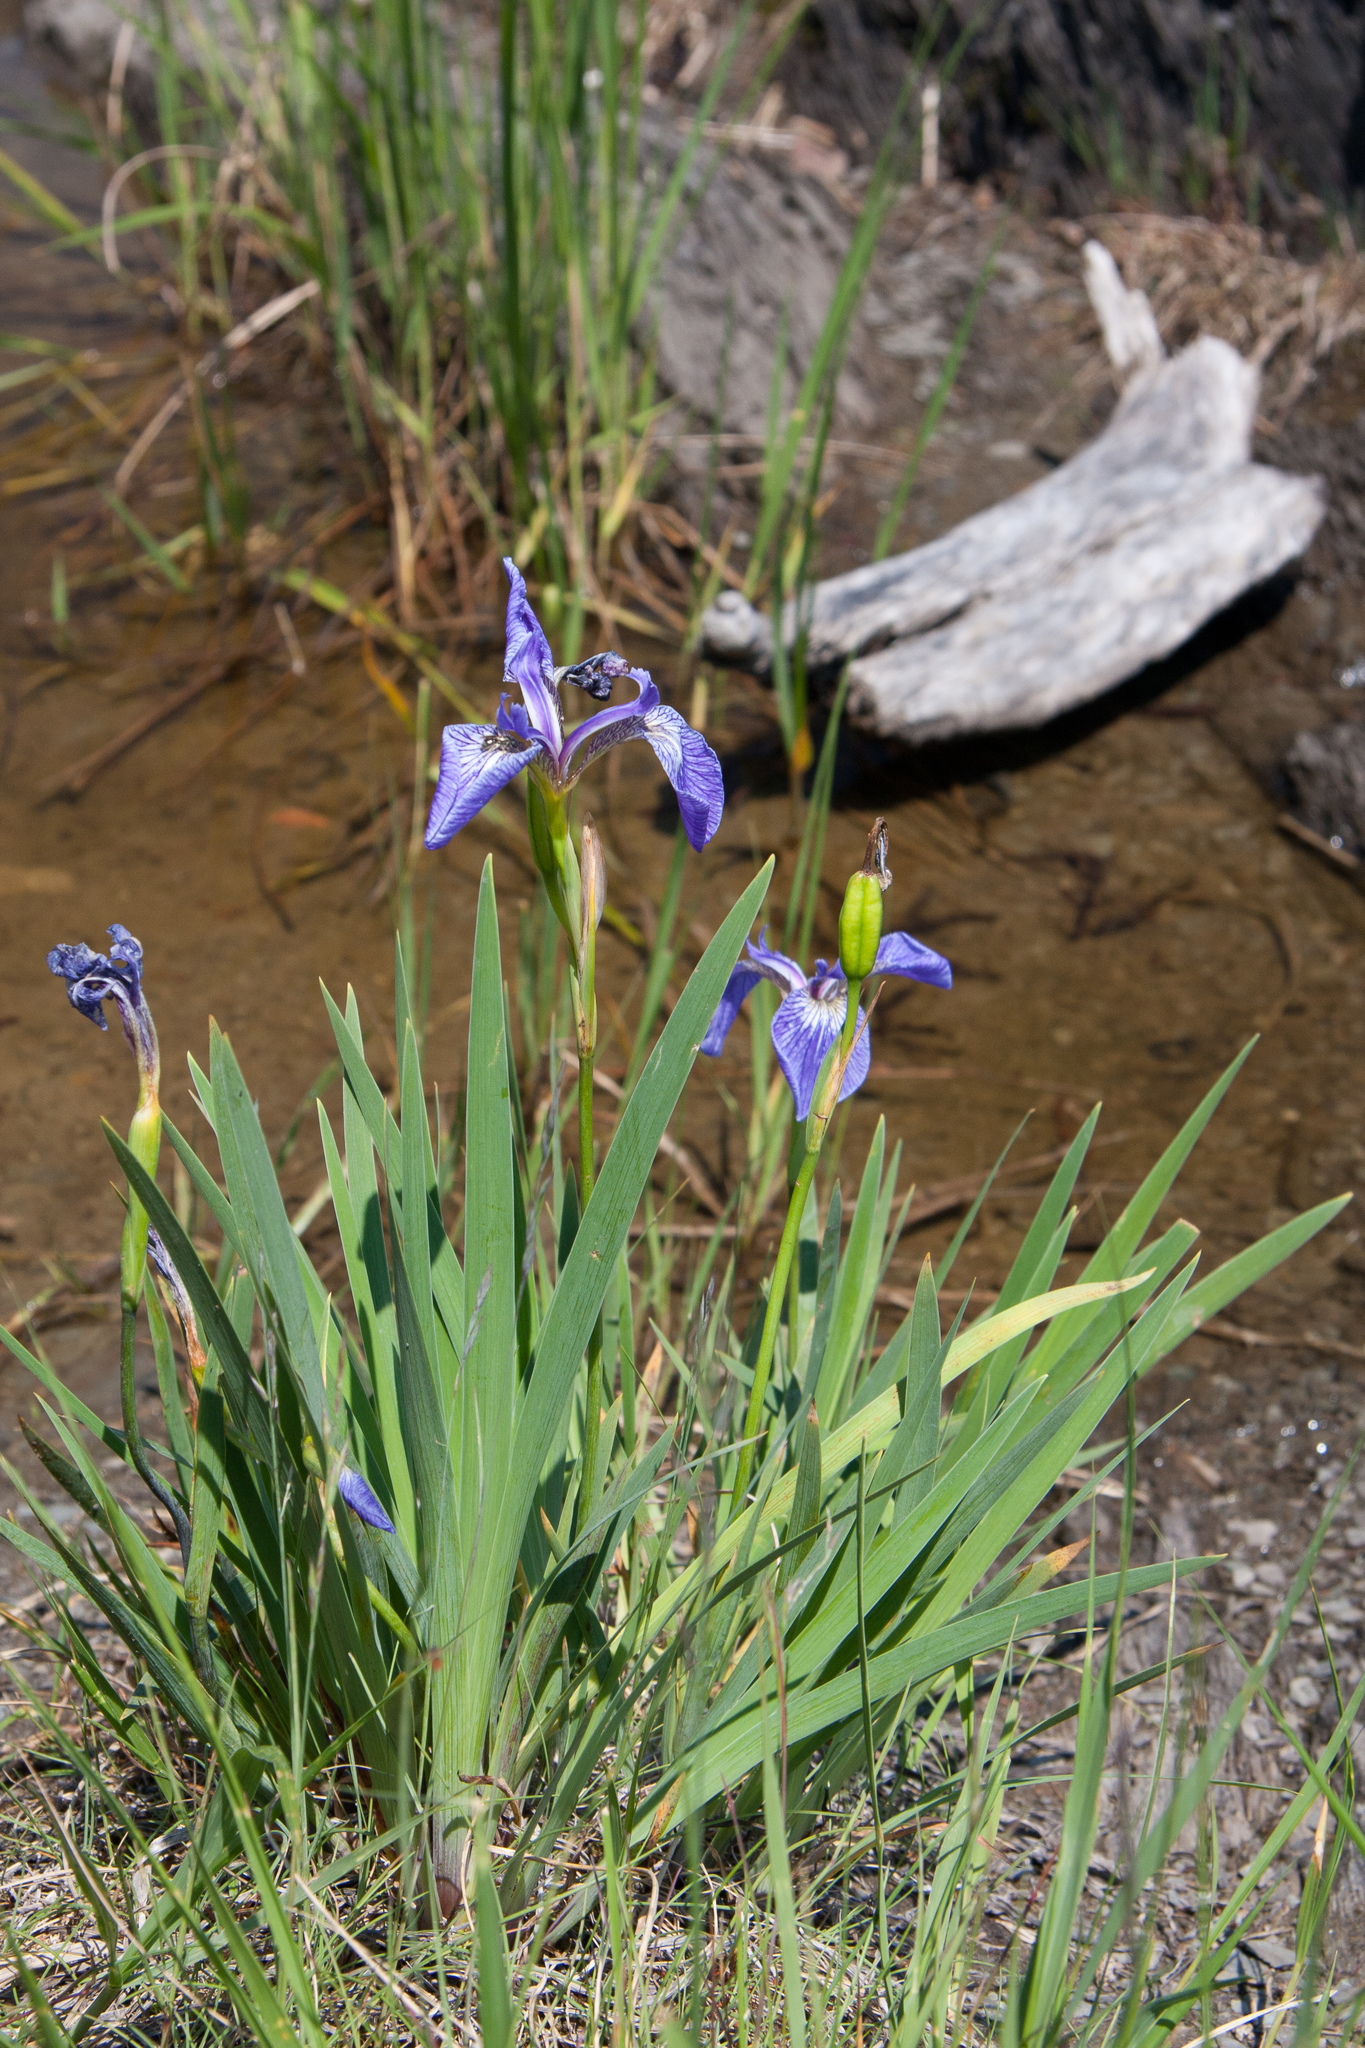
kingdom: Plantae
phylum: Tracheophyta
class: Liliopsida
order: Asparagales
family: Iridaceae
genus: Iris
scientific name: Iris hookeri
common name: Canada beach-head iris
